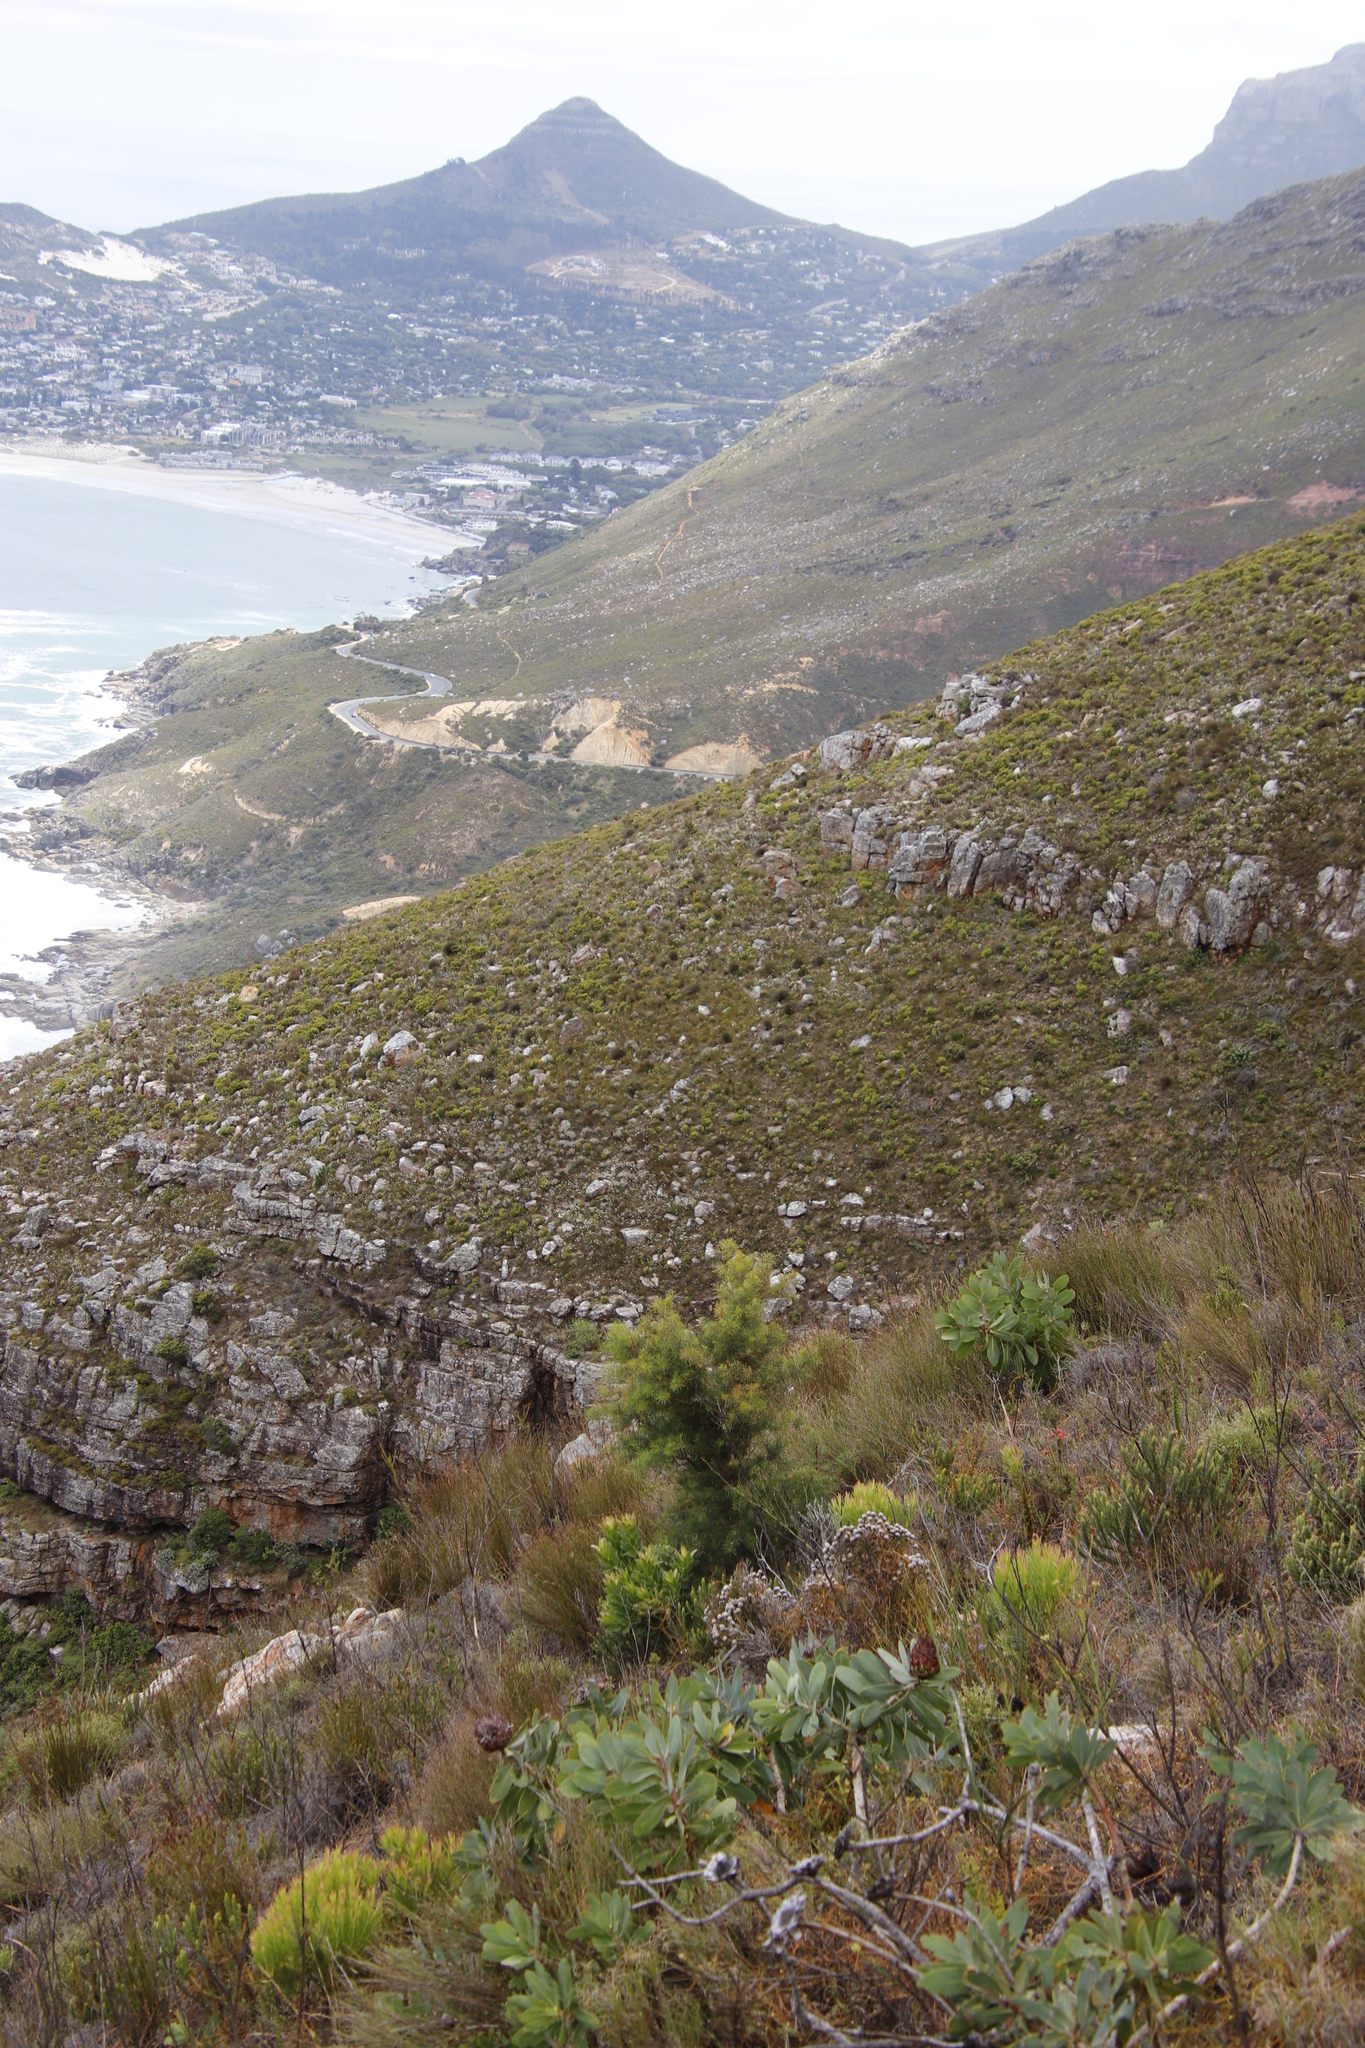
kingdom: Plantae
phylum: Tracheophyta
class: Magnoliopsida
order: Proteales
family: Proteaceae
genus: Hakea
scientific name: Hakea sericea
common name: Needle bush
